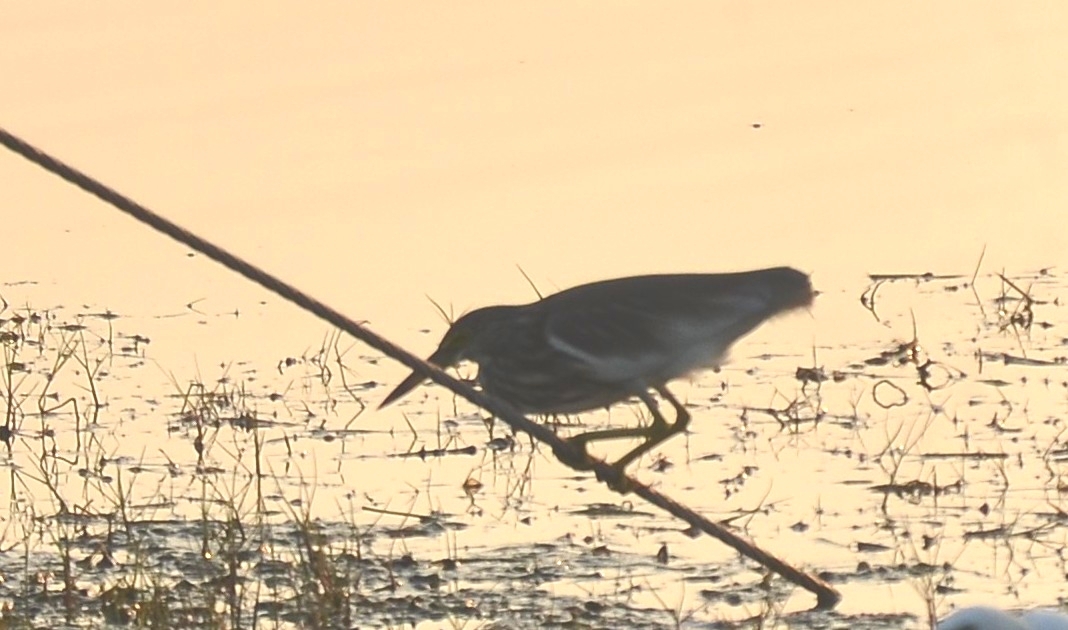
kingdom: Animalia
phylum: Chordata
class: Aves
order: Pelecaniformes
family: Ardeidae
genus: Ardeola
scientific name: Ardeola grayii
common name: Indian pond heron
